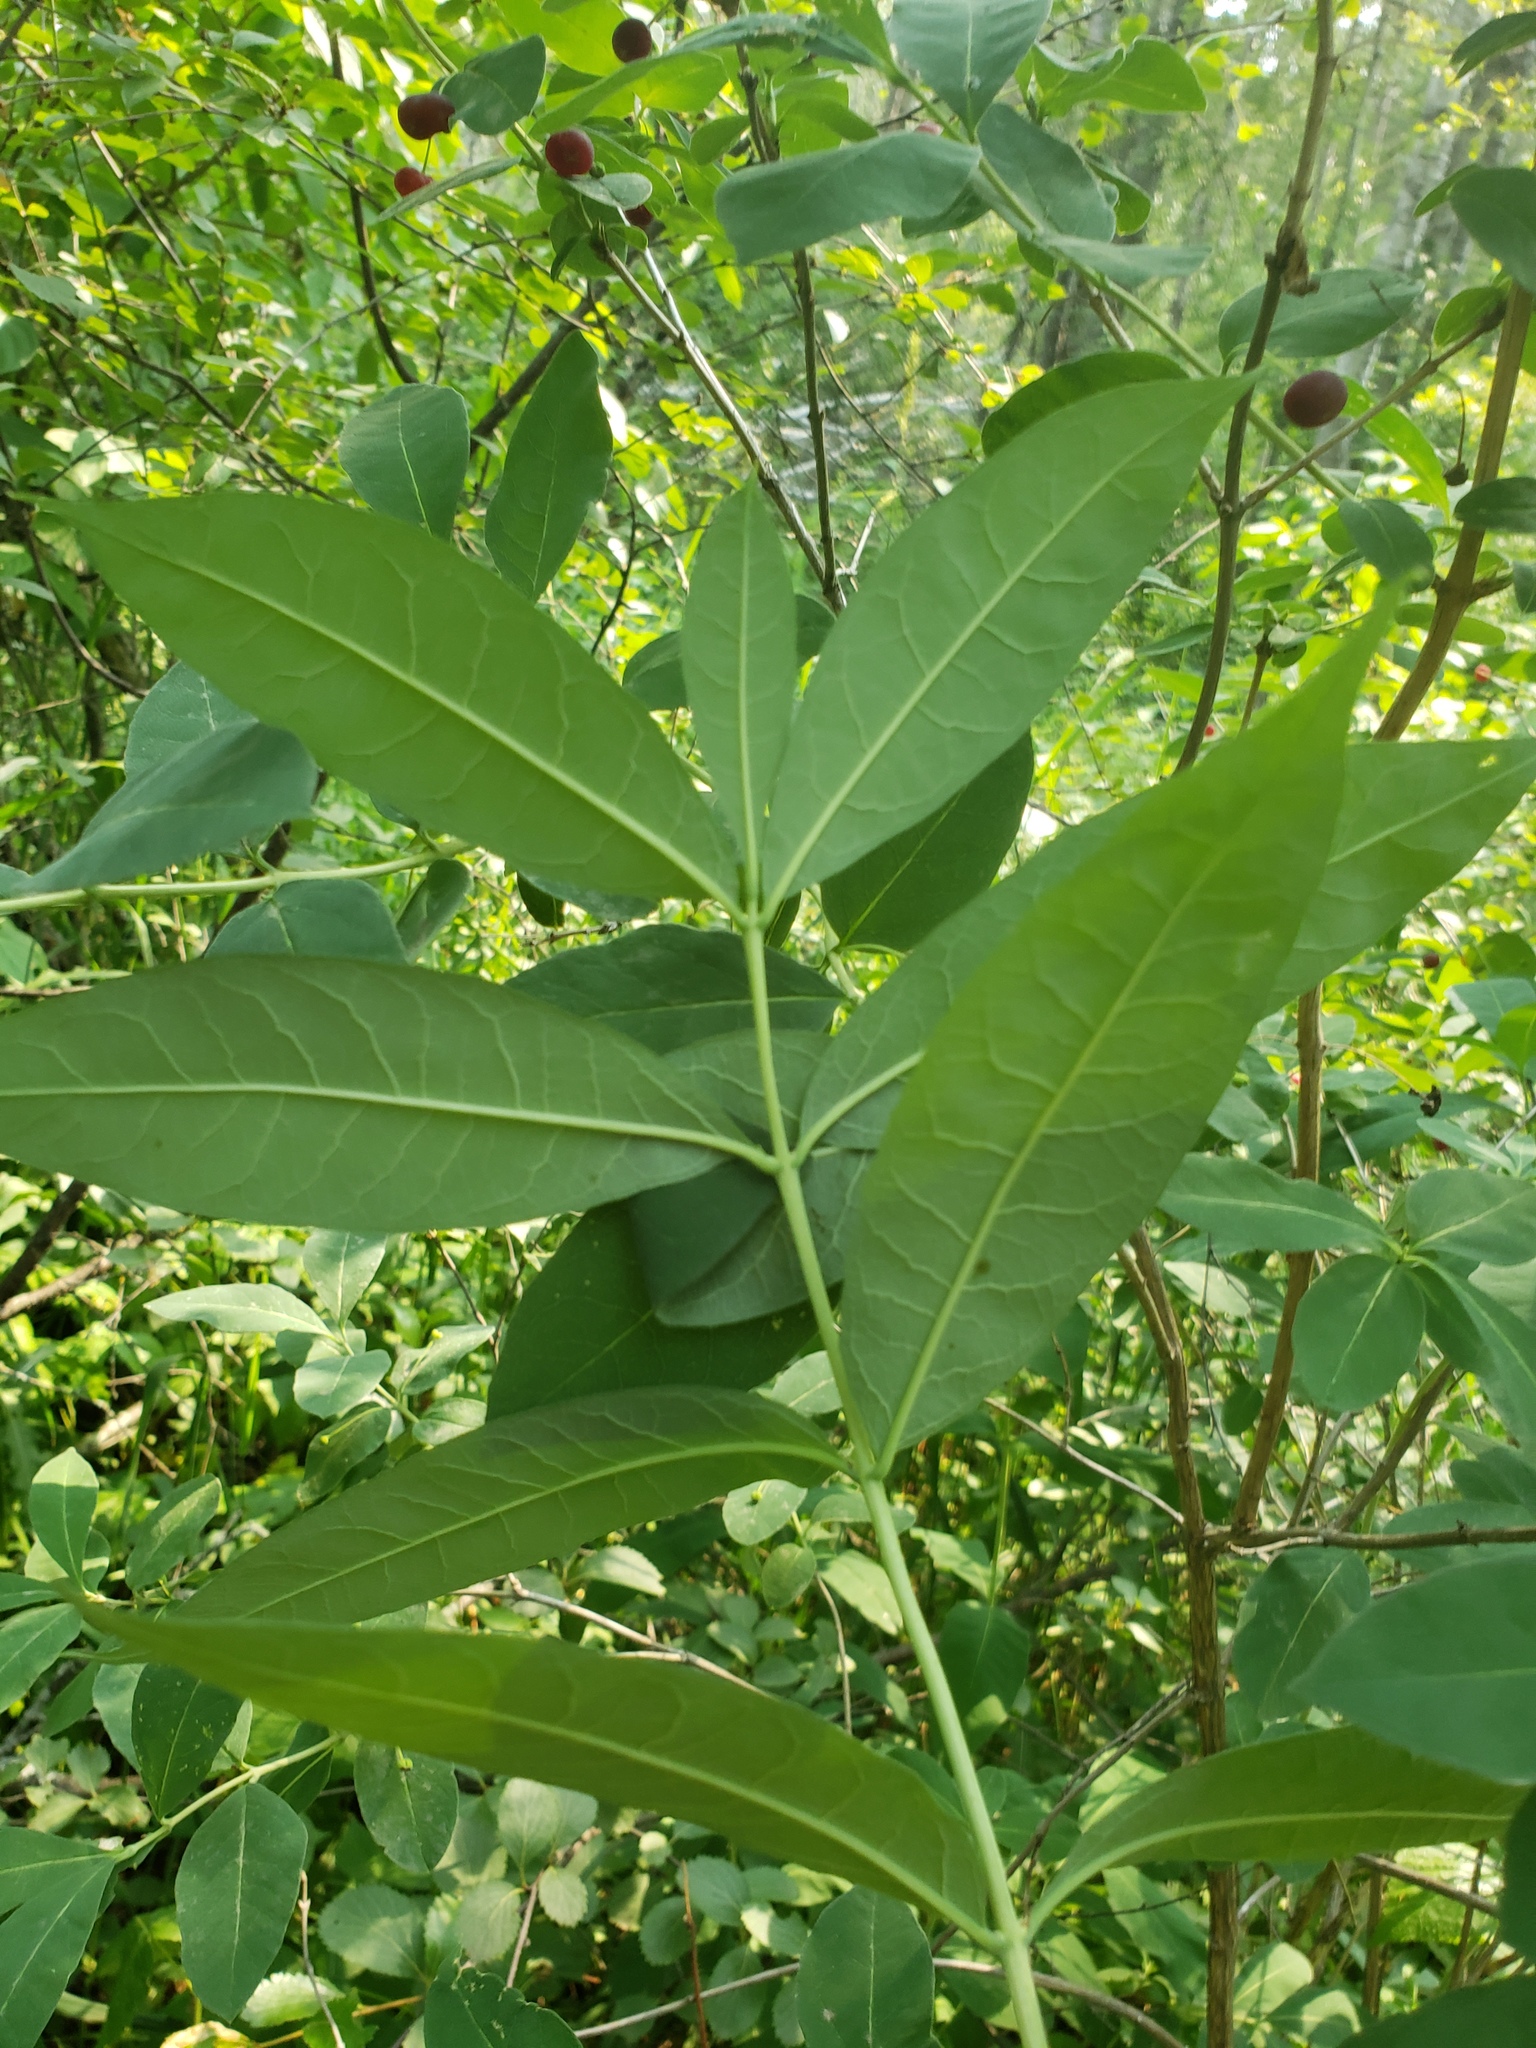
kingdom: Plantae
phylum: Tracheophyta
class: Magnoliopsida
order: Dipsacales
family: Caprifoliaceae
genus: Lonicera
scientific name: Lonicera oblongifolia
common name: Swamp fly honeysuckle
